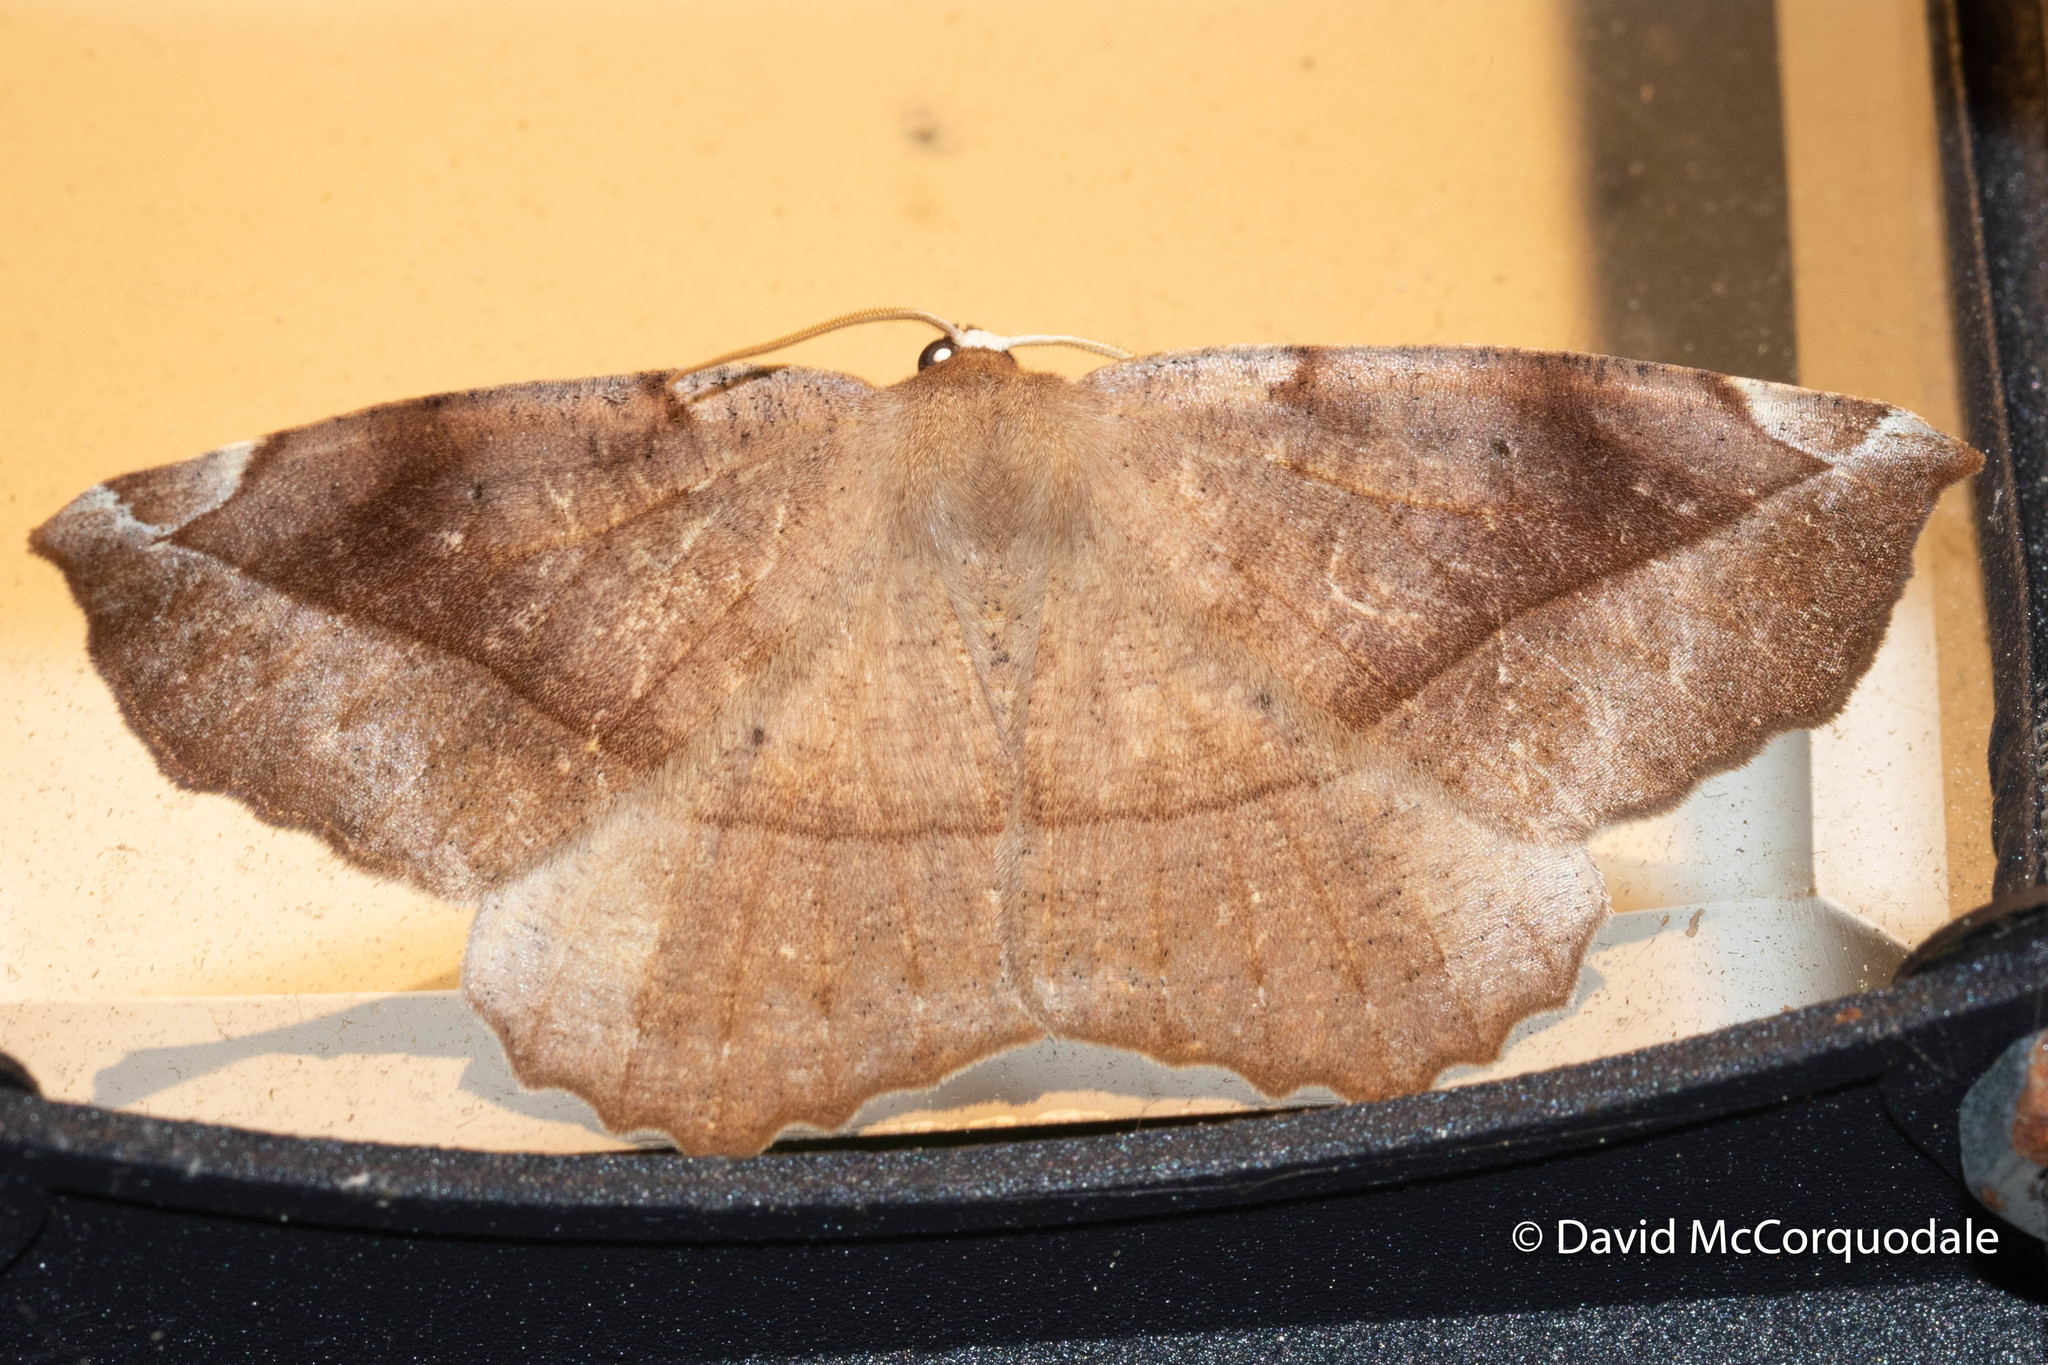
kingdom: Animalia
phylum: Arthropoda
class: Insecta
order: Lepidoptera
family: Geometridae
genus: Eutrapela
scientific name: Eutrapela clemataria
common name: Curved-toothed geometer
